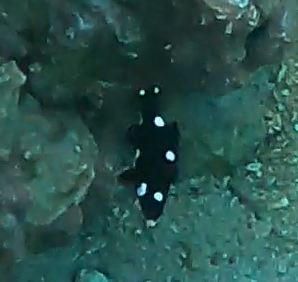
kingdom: Animalia
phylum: Chordata
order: Perciformes
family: Labridae
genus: Bodianus
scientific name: Bodianus axillaris
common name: Axilspot hogfish
